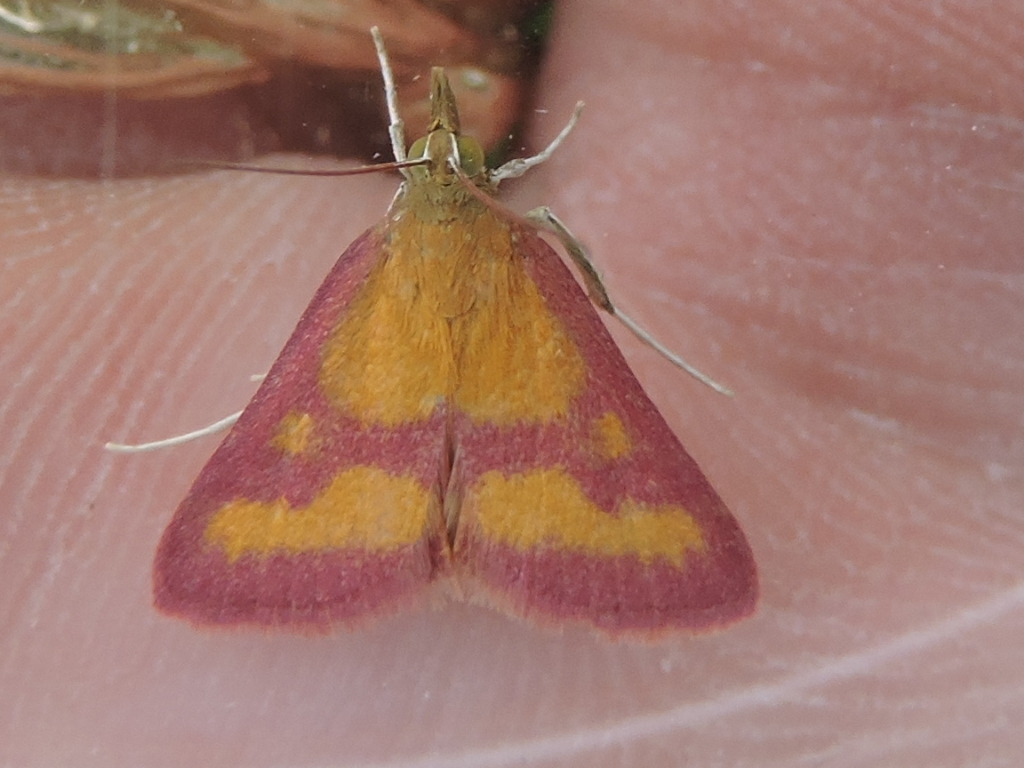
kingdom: Animalia
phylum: Arthropoda
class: Insecta
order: Lepidoptera
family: Crambidae
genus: Pyrausta
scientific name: Pyrausta laticlavia
